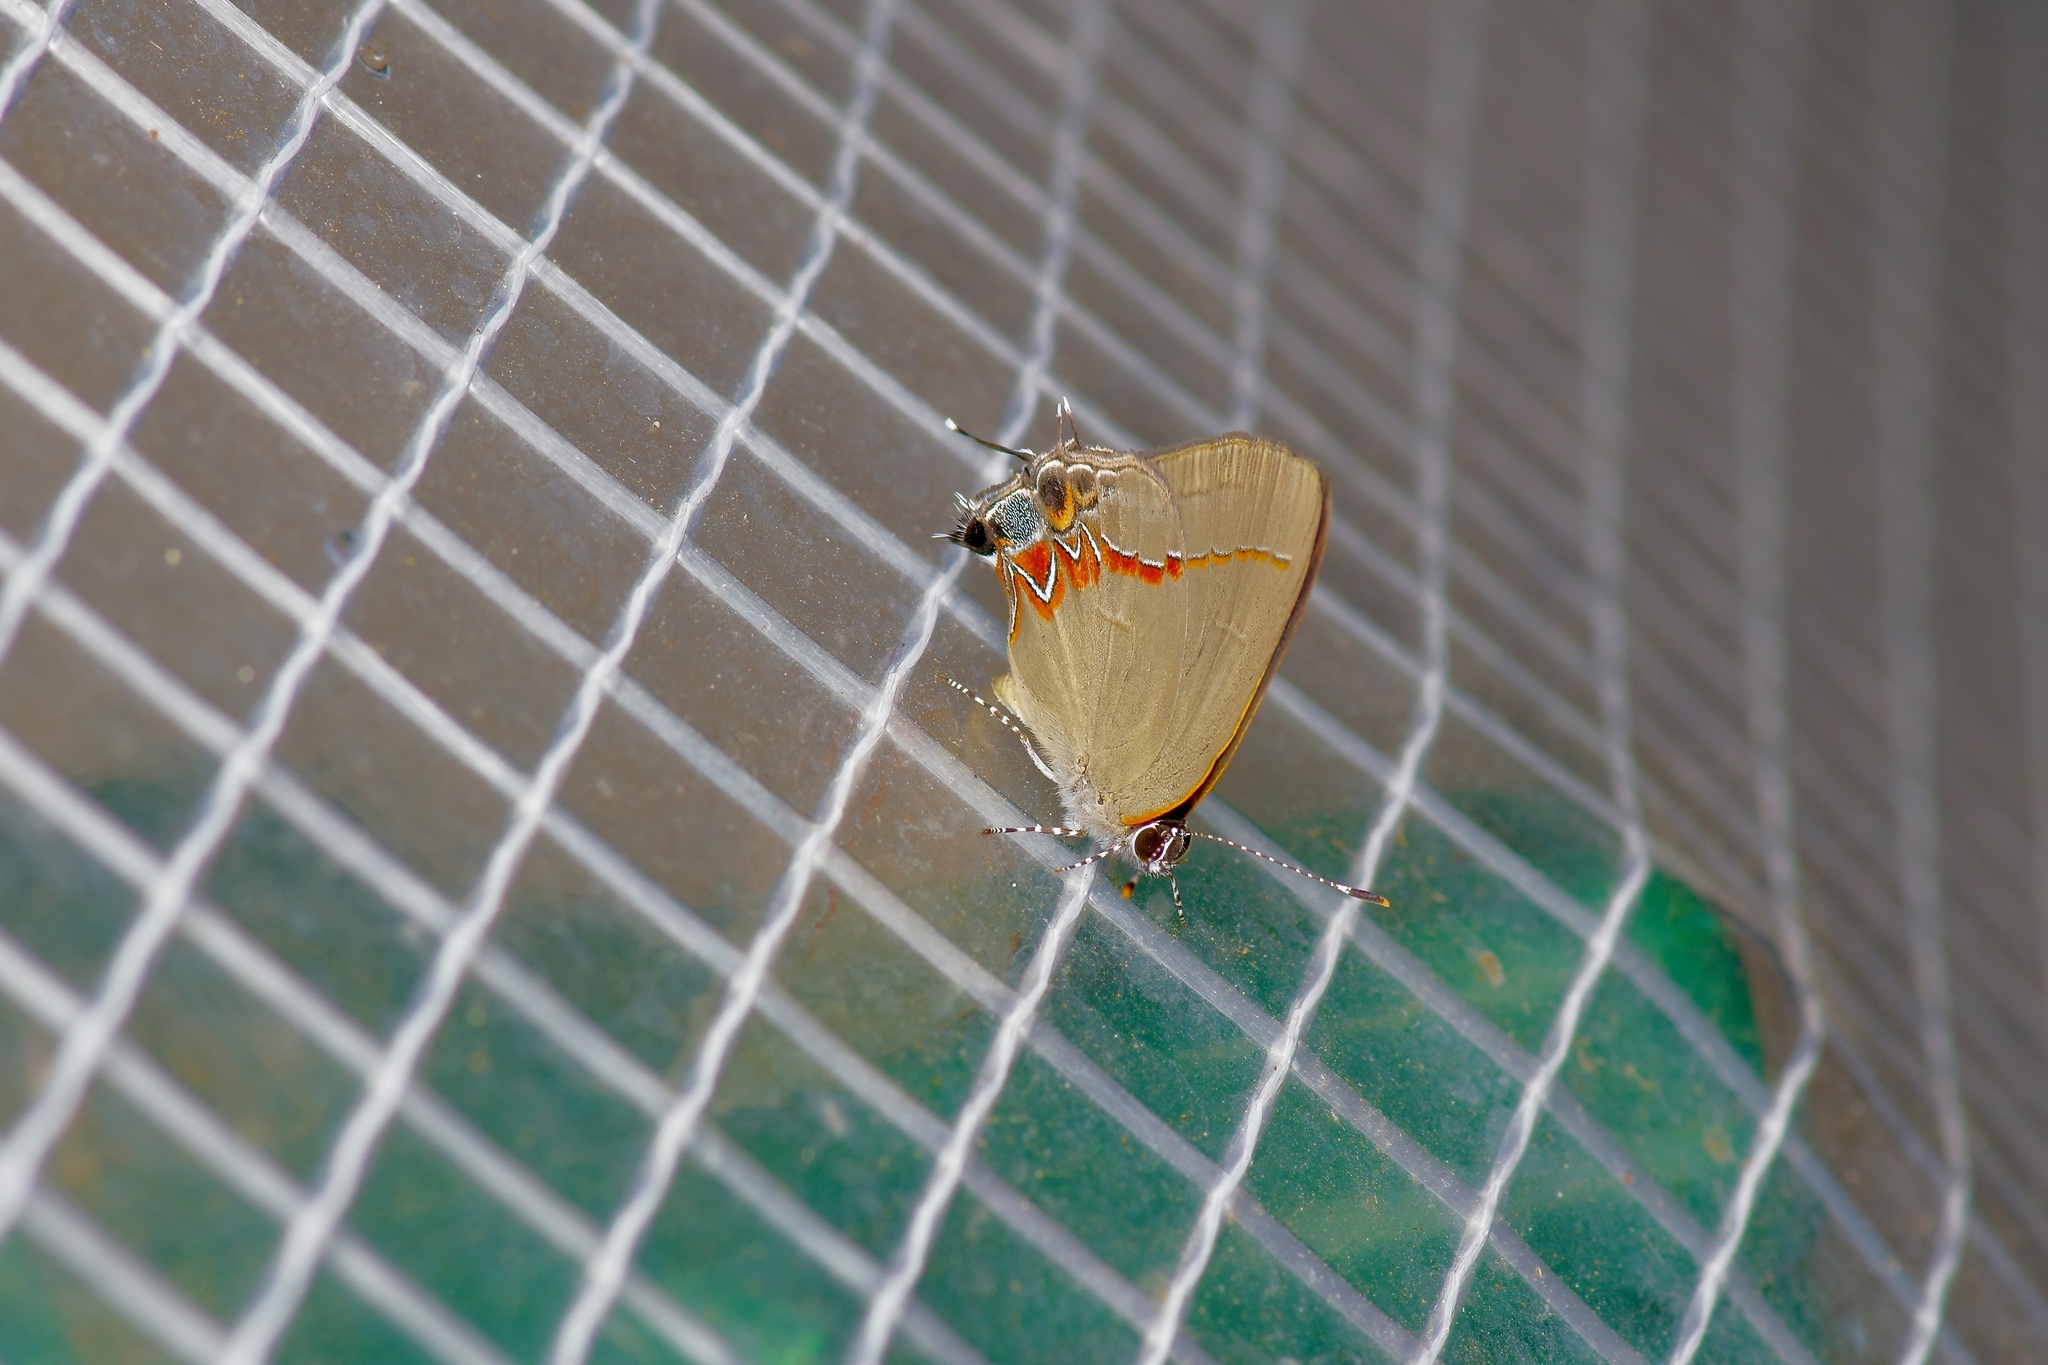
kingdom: Animalia
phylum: Arthropoda
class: Insecta
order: Lepidoptera
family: Lycaenidae
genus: Calycopis
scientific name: Calycopis isobeon
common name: Dusky-blue groundstreak
